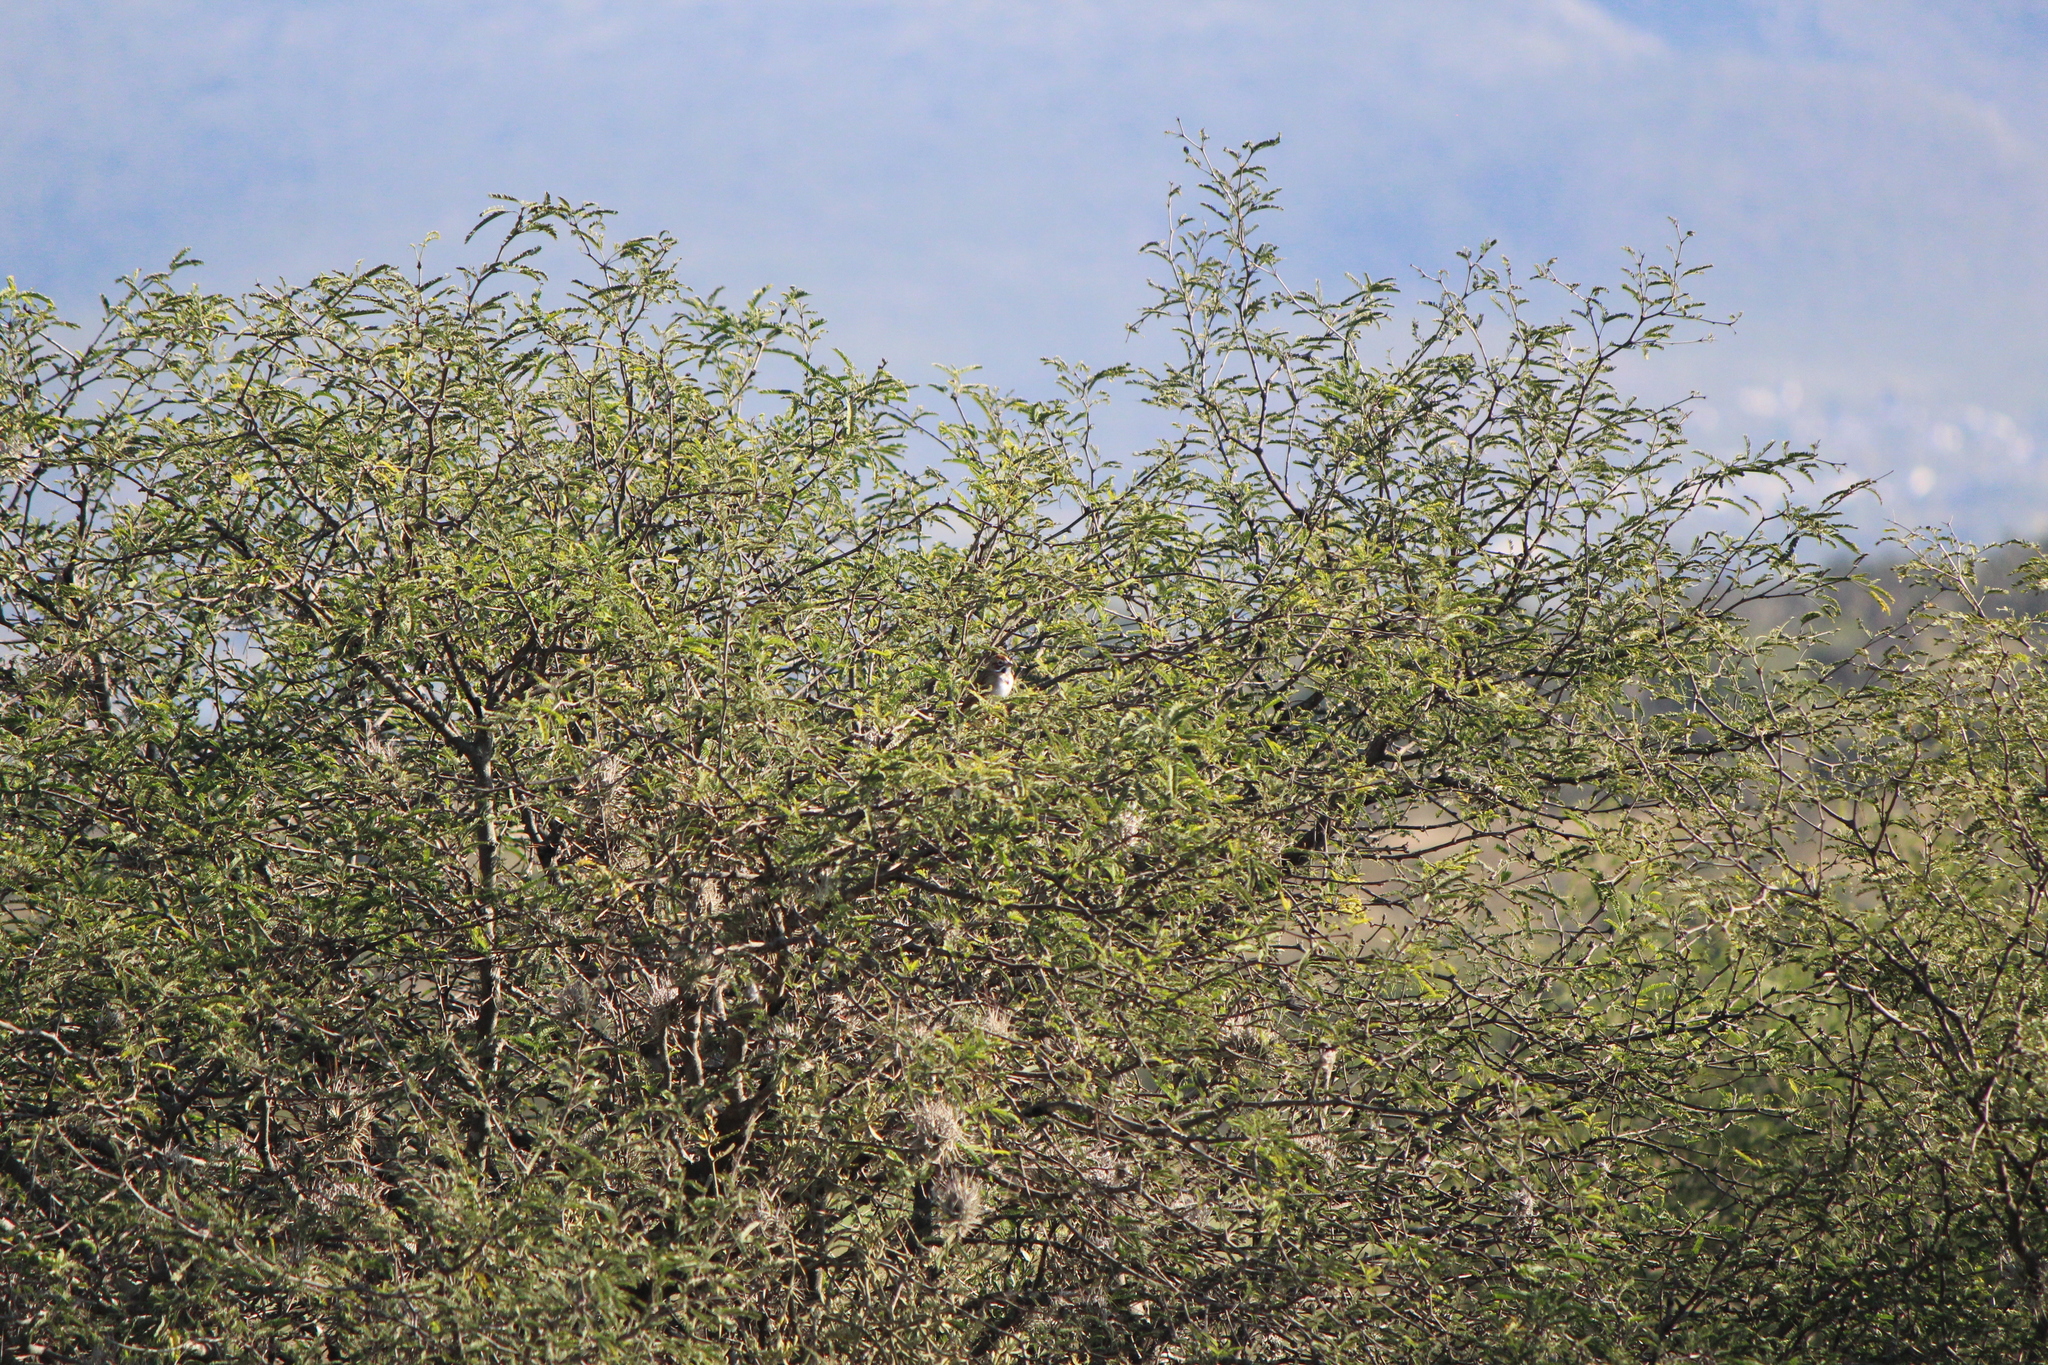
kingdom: Animalia
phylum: Chordata
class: Aves
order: Passeriformes
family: Passerellidae
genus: Chondestes
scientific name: Chondestes grammacus
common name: Lark sparrow
